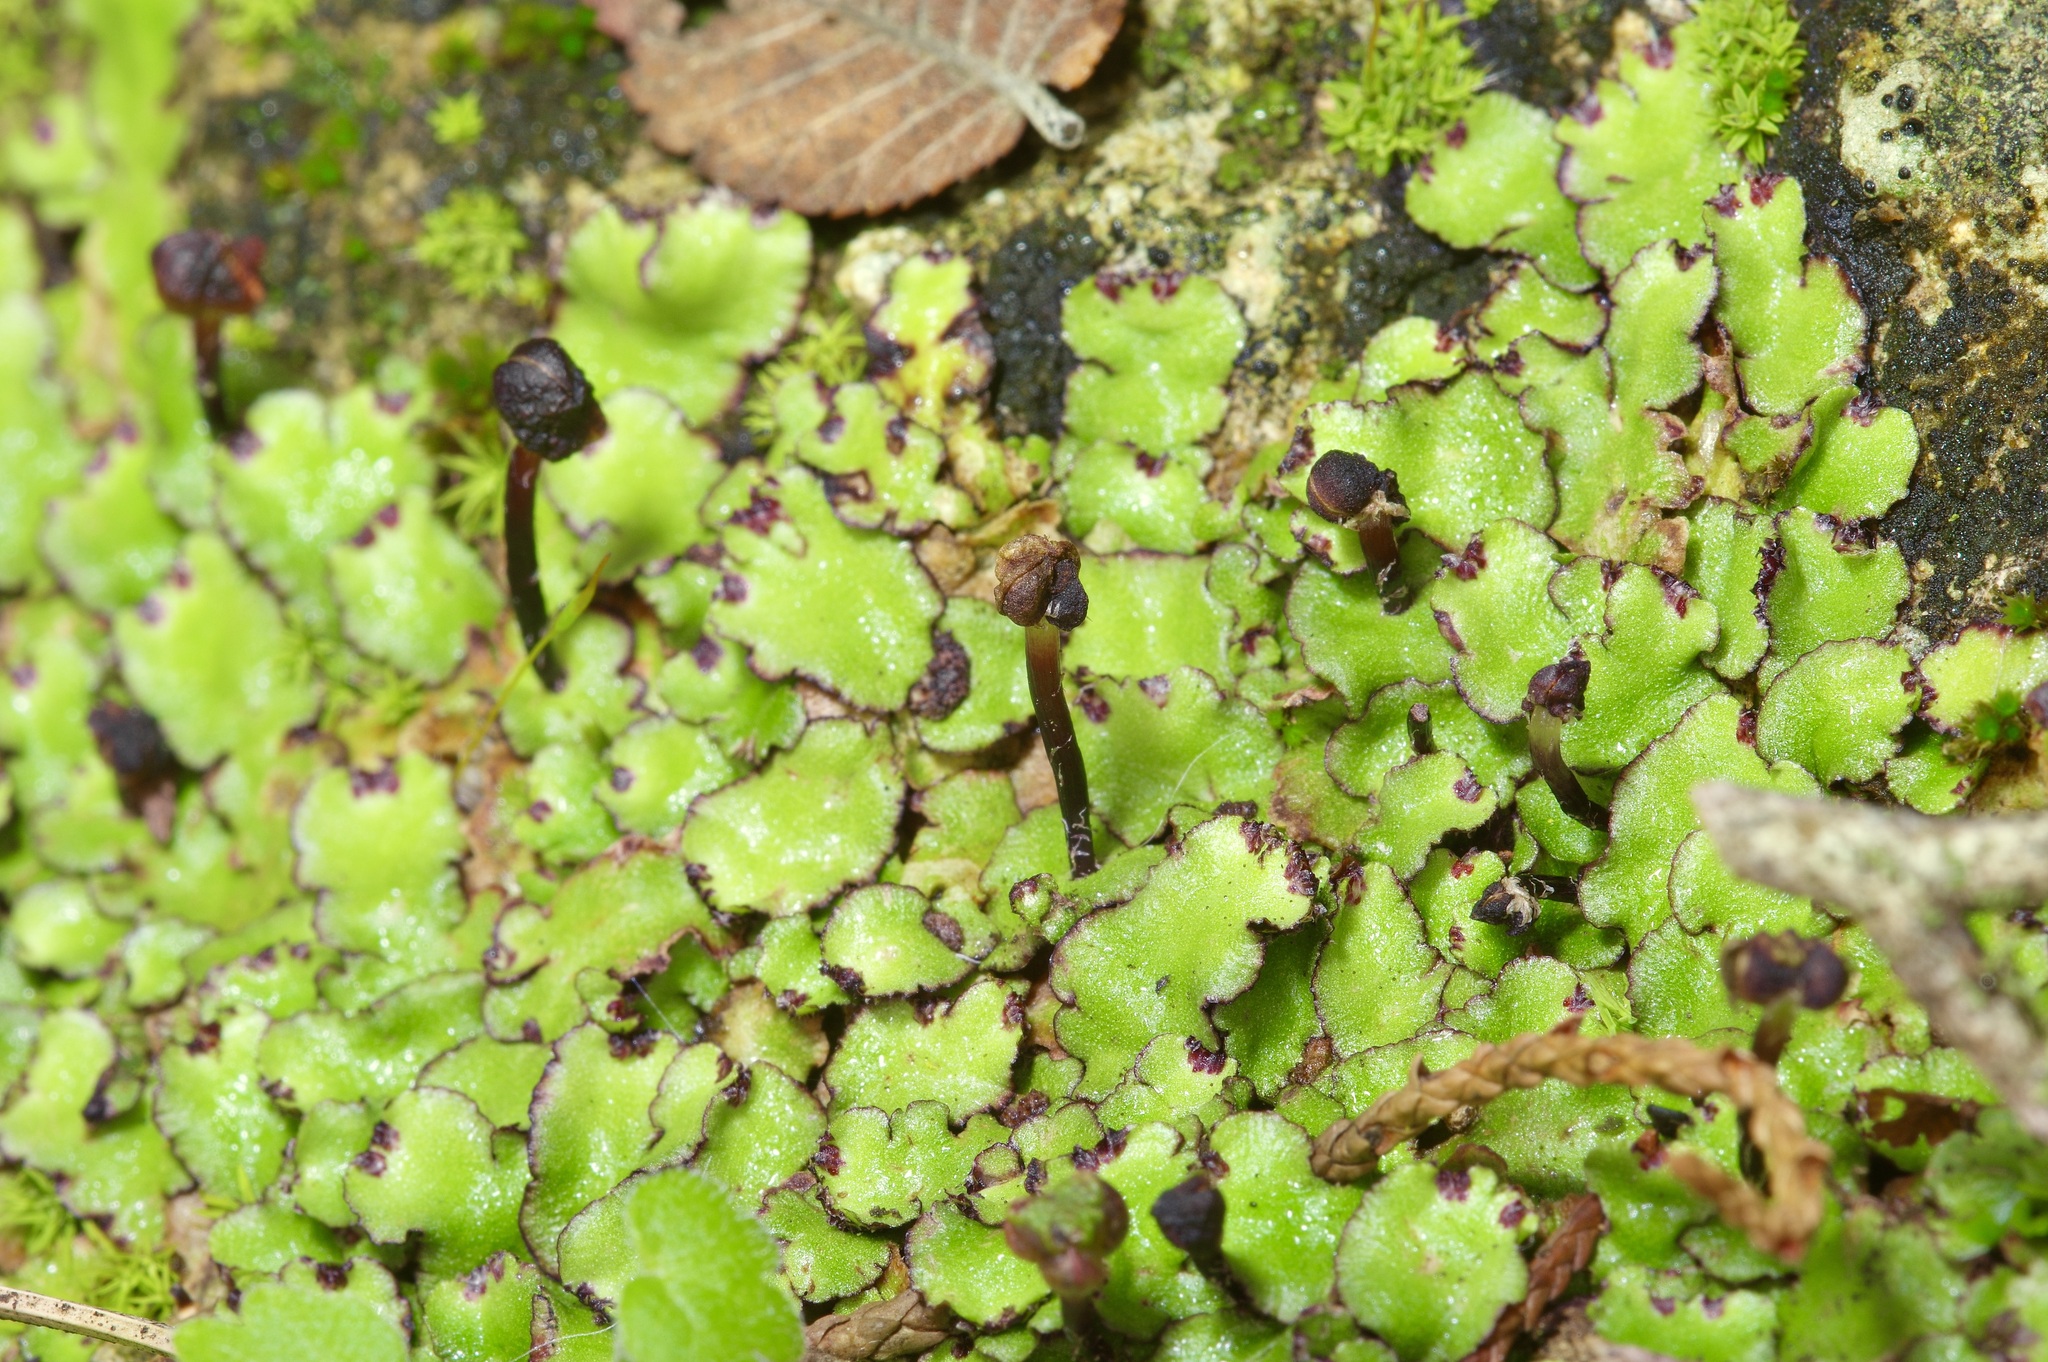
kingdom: Plantae
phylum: Marchantiophyta
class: Marchantiopsida
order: Marchantiales
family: Aytoniaceae
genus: Reboulia
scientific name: Reboulia hemisphaerica
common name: Purple-margined liverwort
